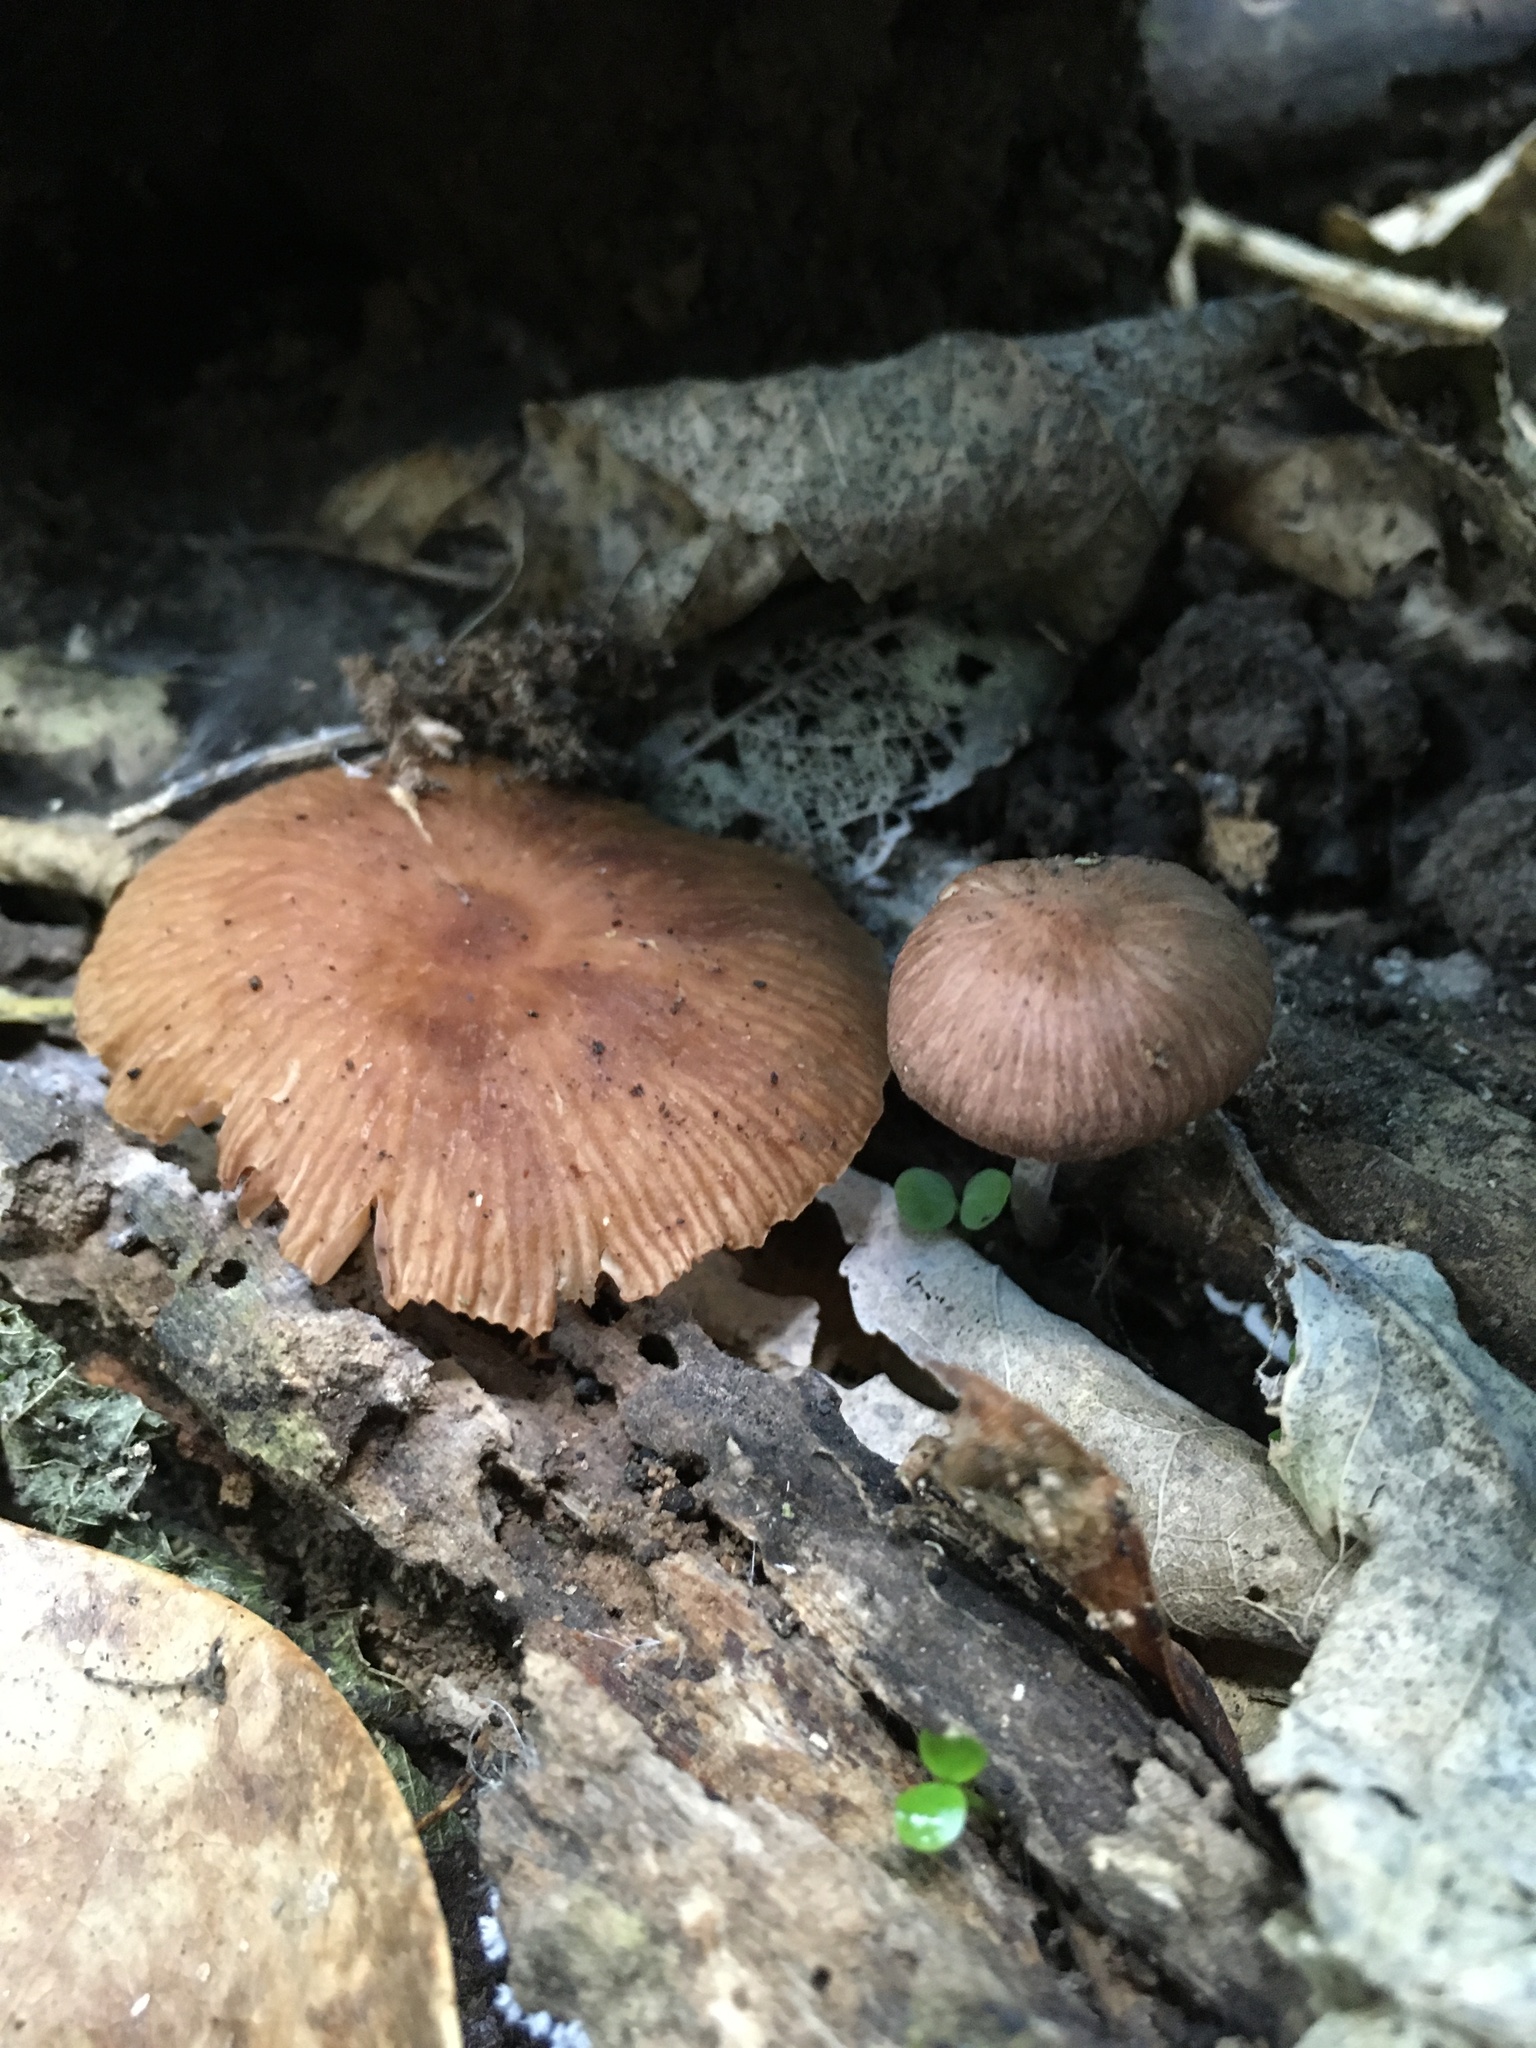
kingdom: Fungi
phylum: Basidiomycota
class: Agaricomycetes
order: Agaricales
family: Omphalotaceae
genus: Collybiopsis
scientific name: Collybiopsis subpruinosa
